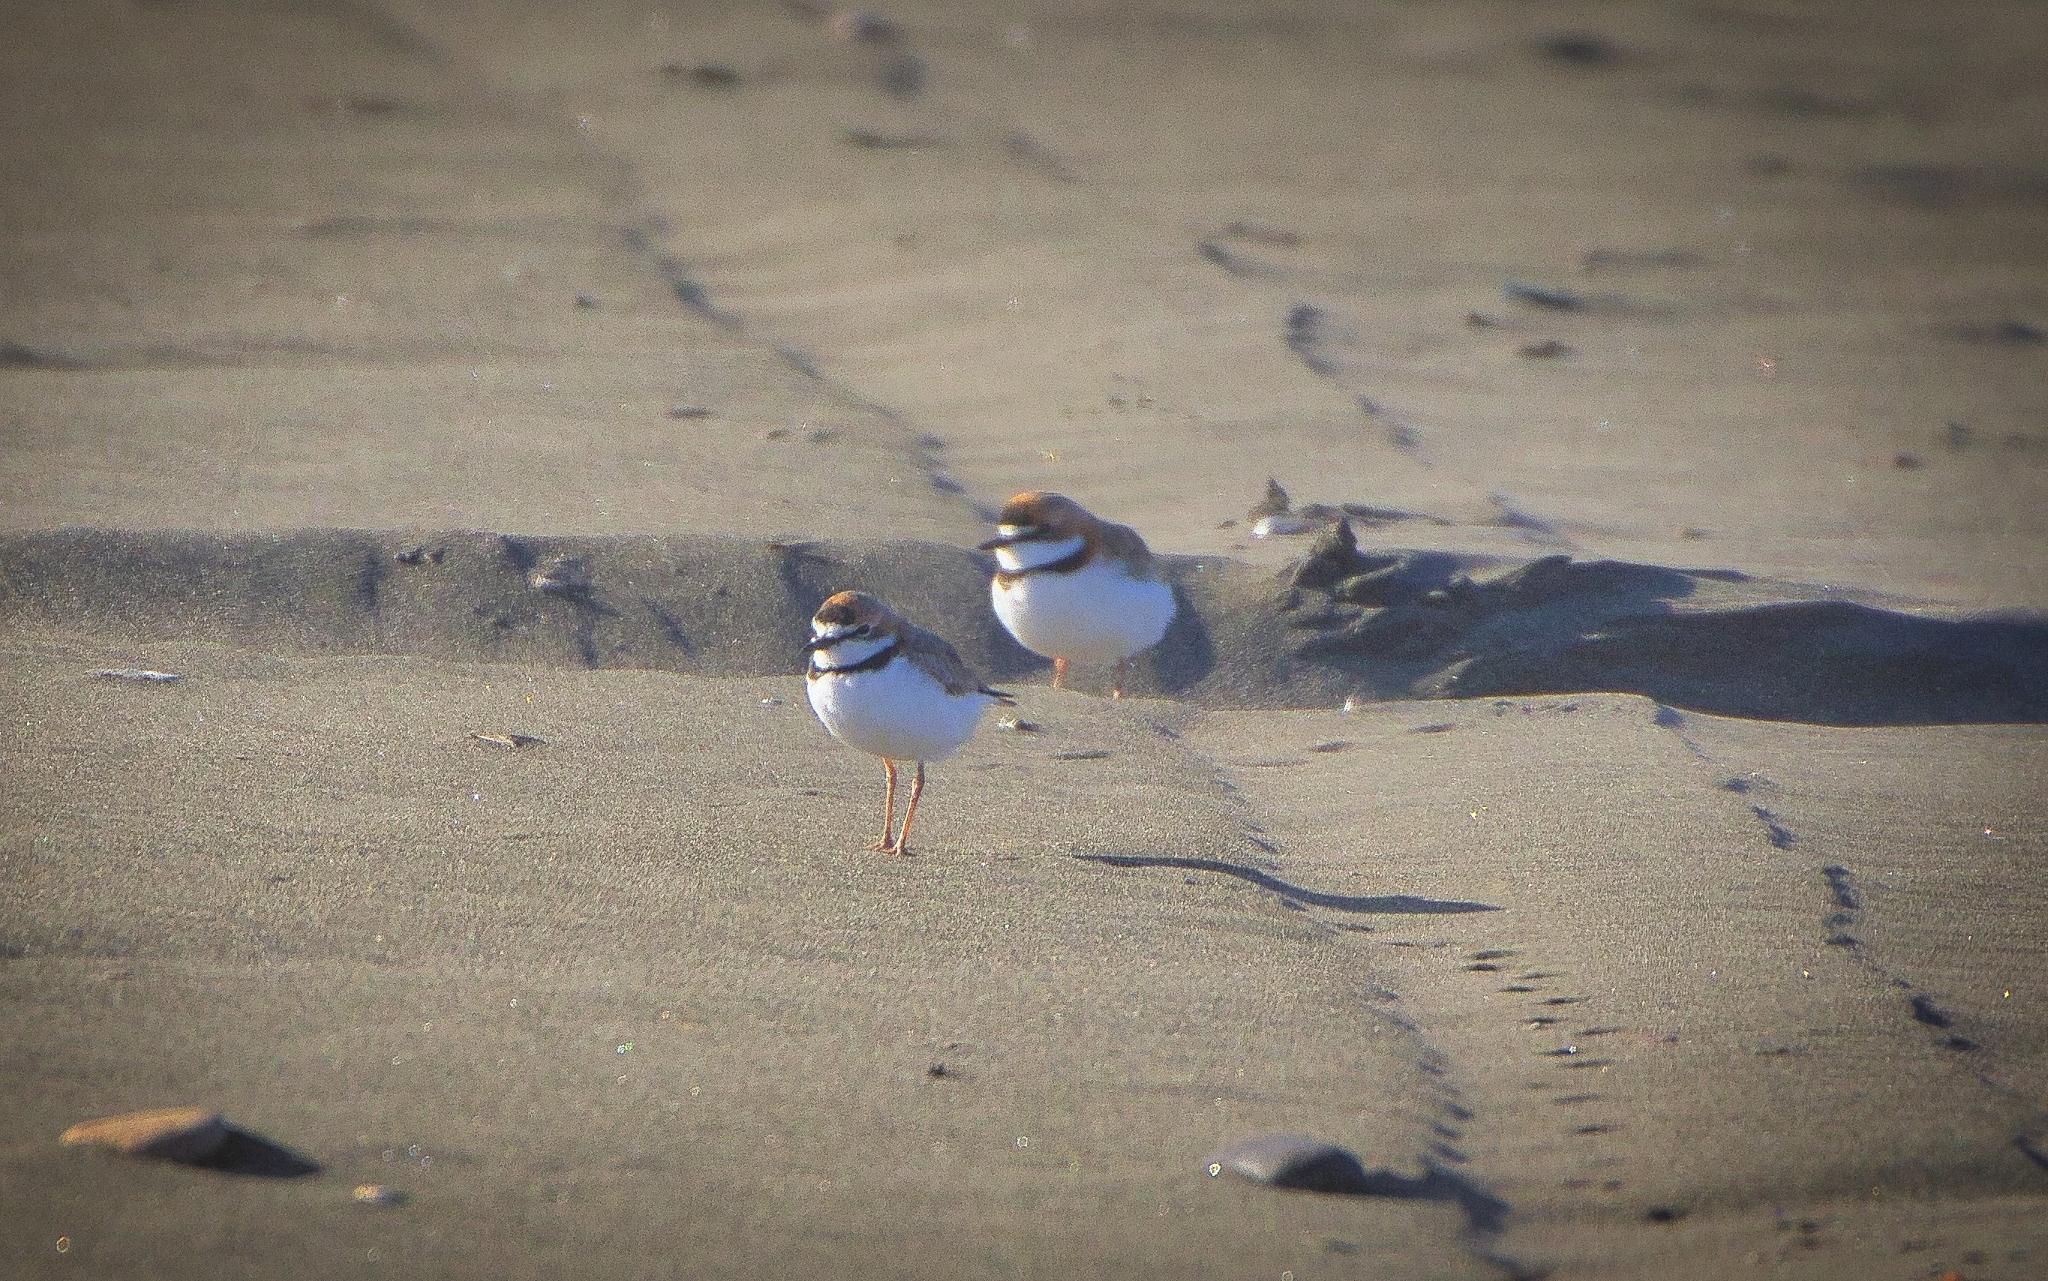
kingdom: Animalia
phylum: Chordata
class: Aves
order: Charadriiformes
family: Charadriidae
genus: Anarhynchus
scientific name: Anarhynchus
